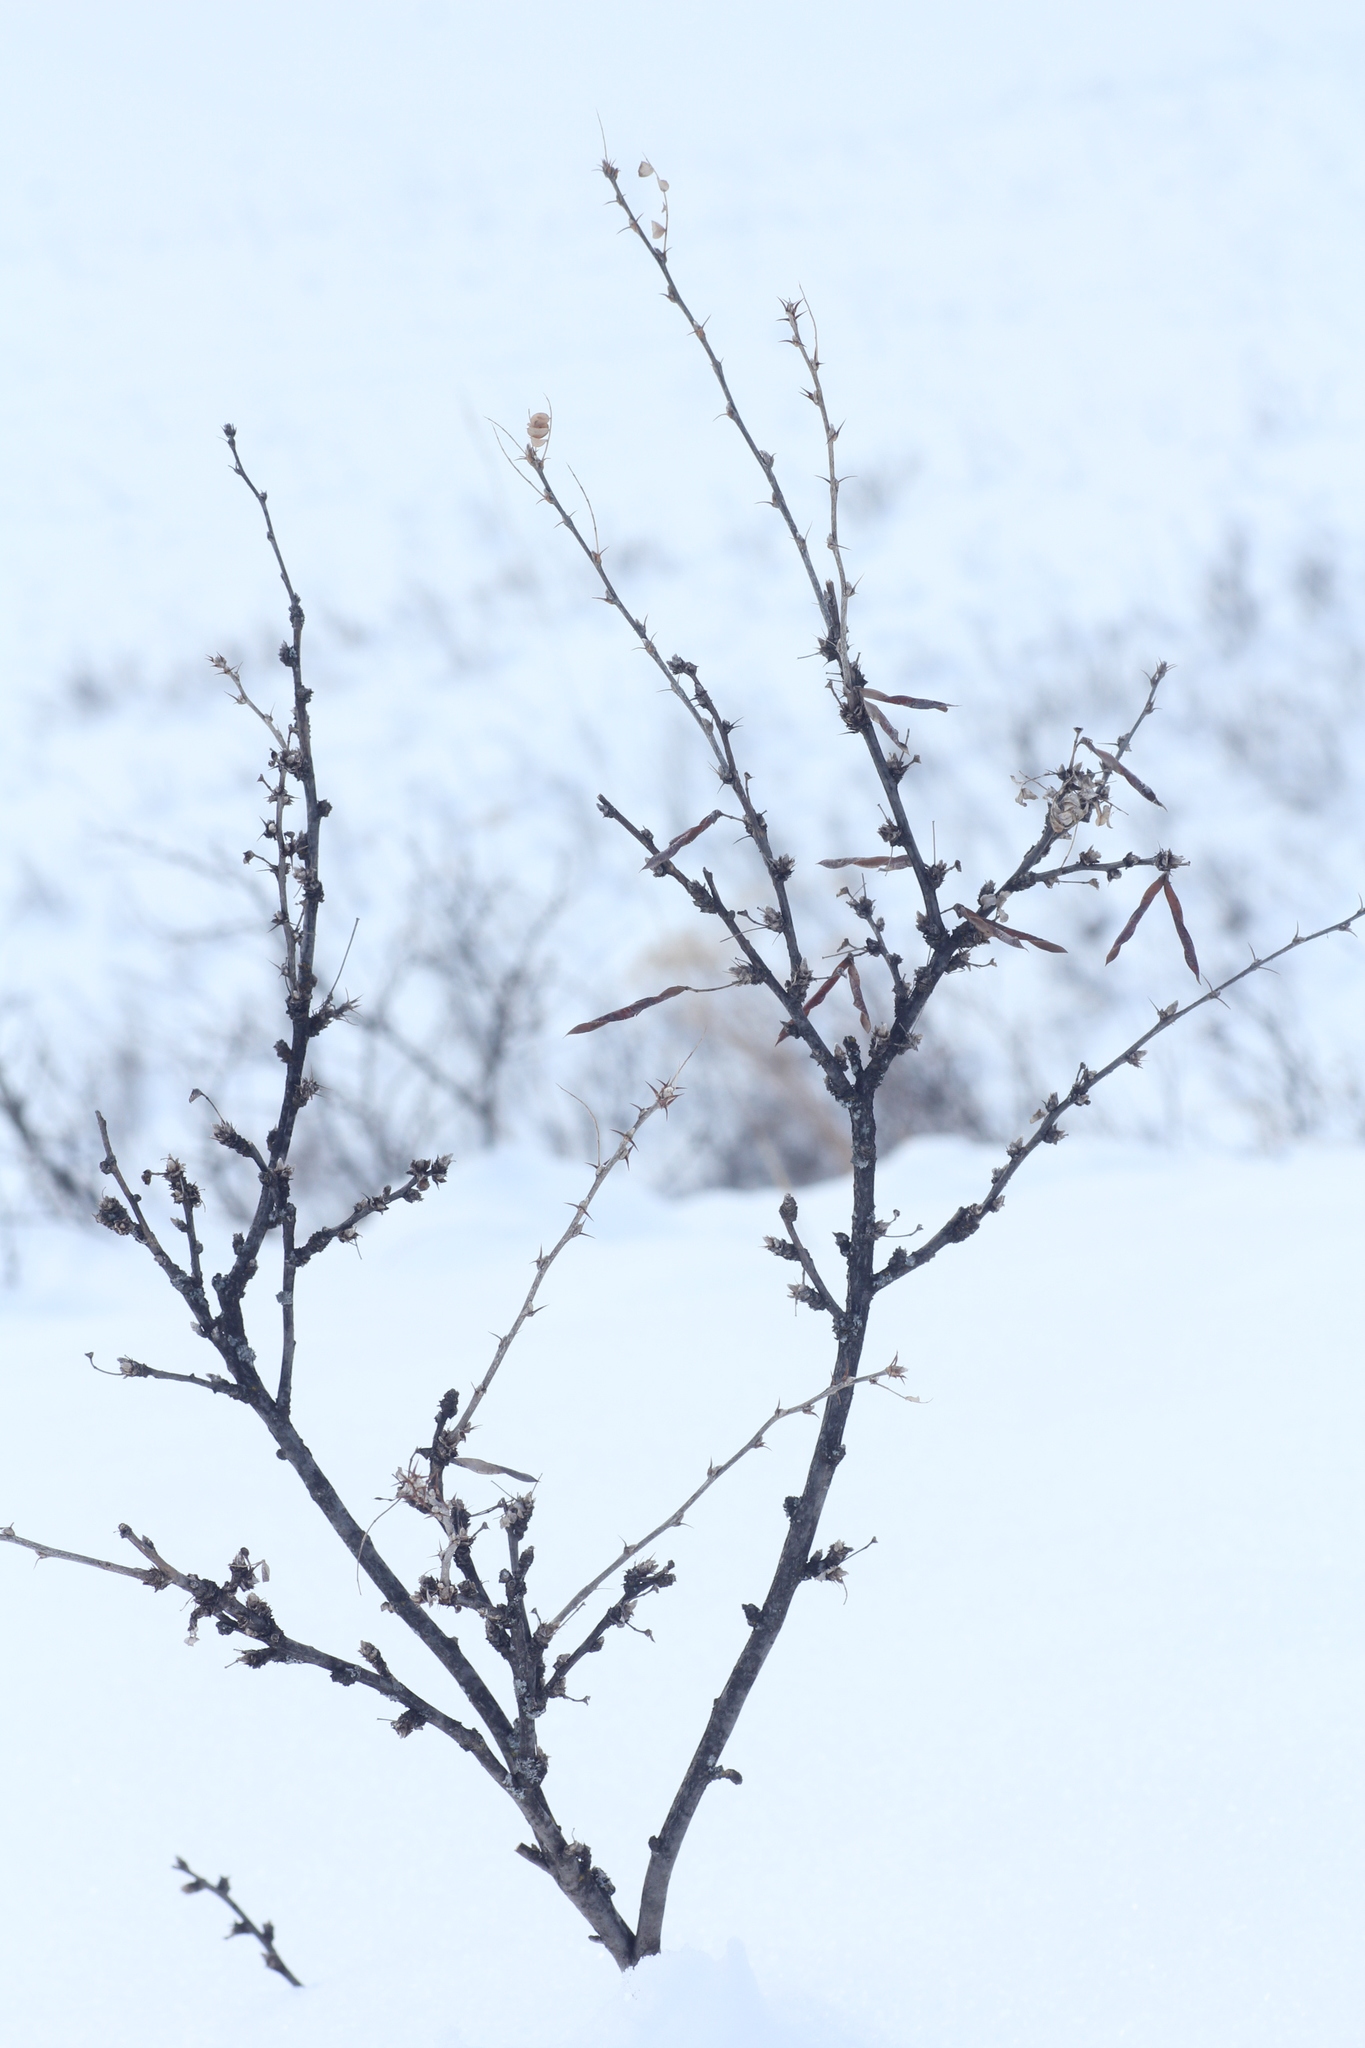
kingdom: Plantae
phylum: Tracheophyta
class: Magnoliopsida
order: Fabales
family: Fabaceae
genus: Caragana
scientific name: Caragana arborescens
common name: Siberian peashrub
